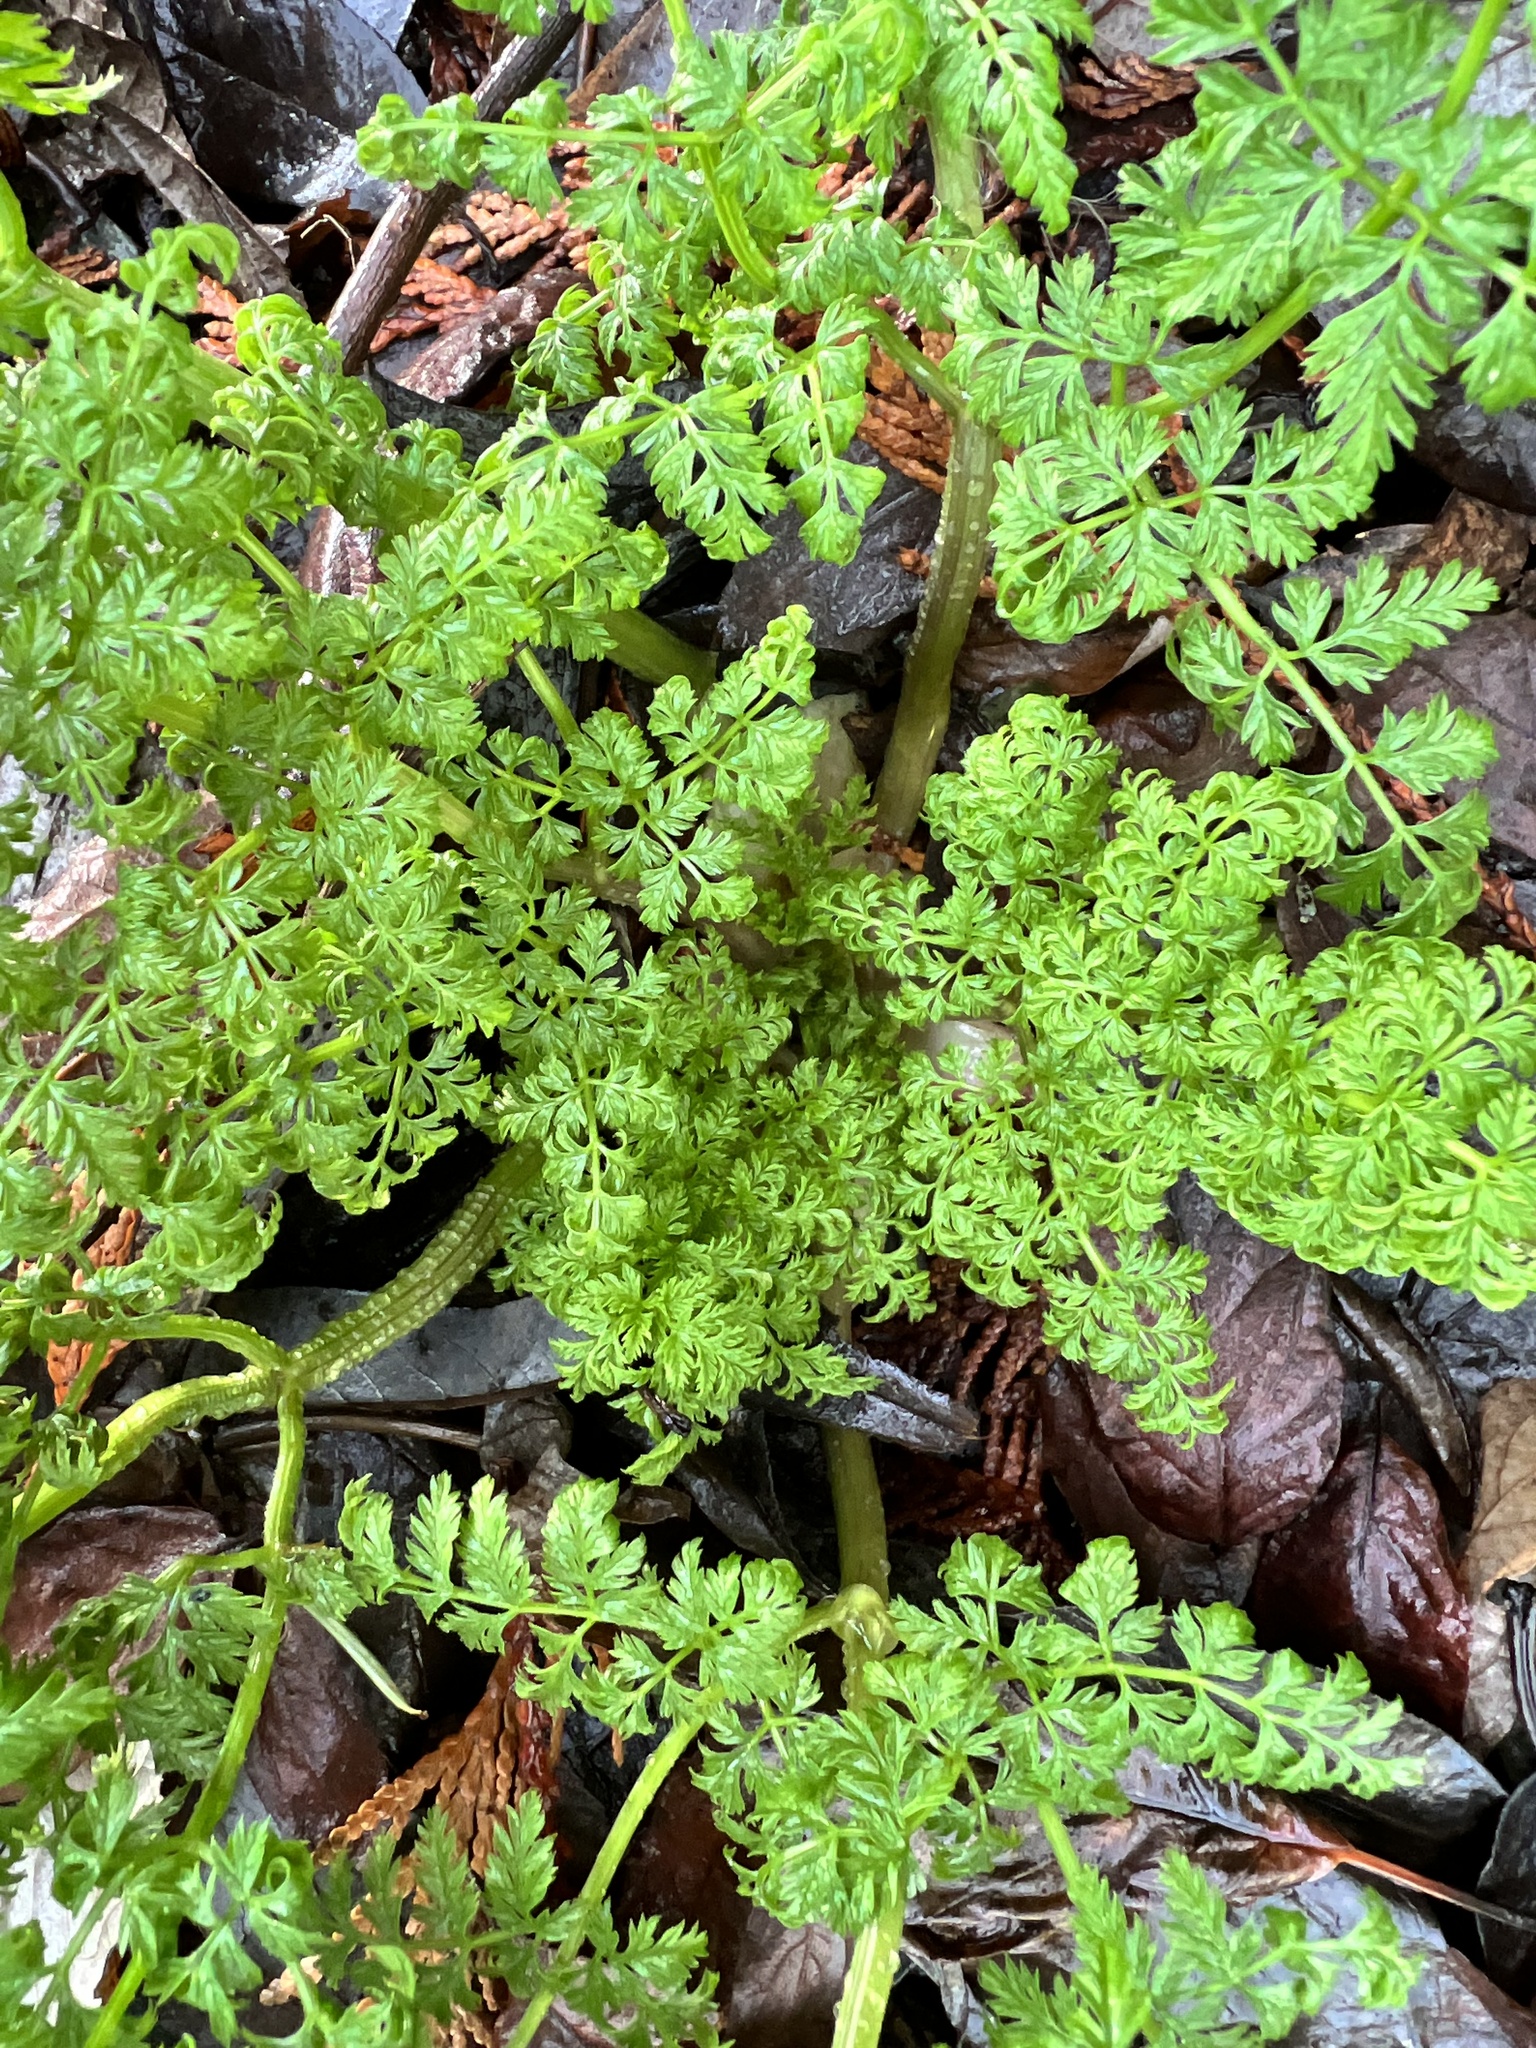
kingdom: Plantae
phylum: Tracheophyta
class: Magnoliopsida
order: Apiales
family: Apiaceae
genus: Conium
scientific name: Conium maculatum
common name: Hemlock
